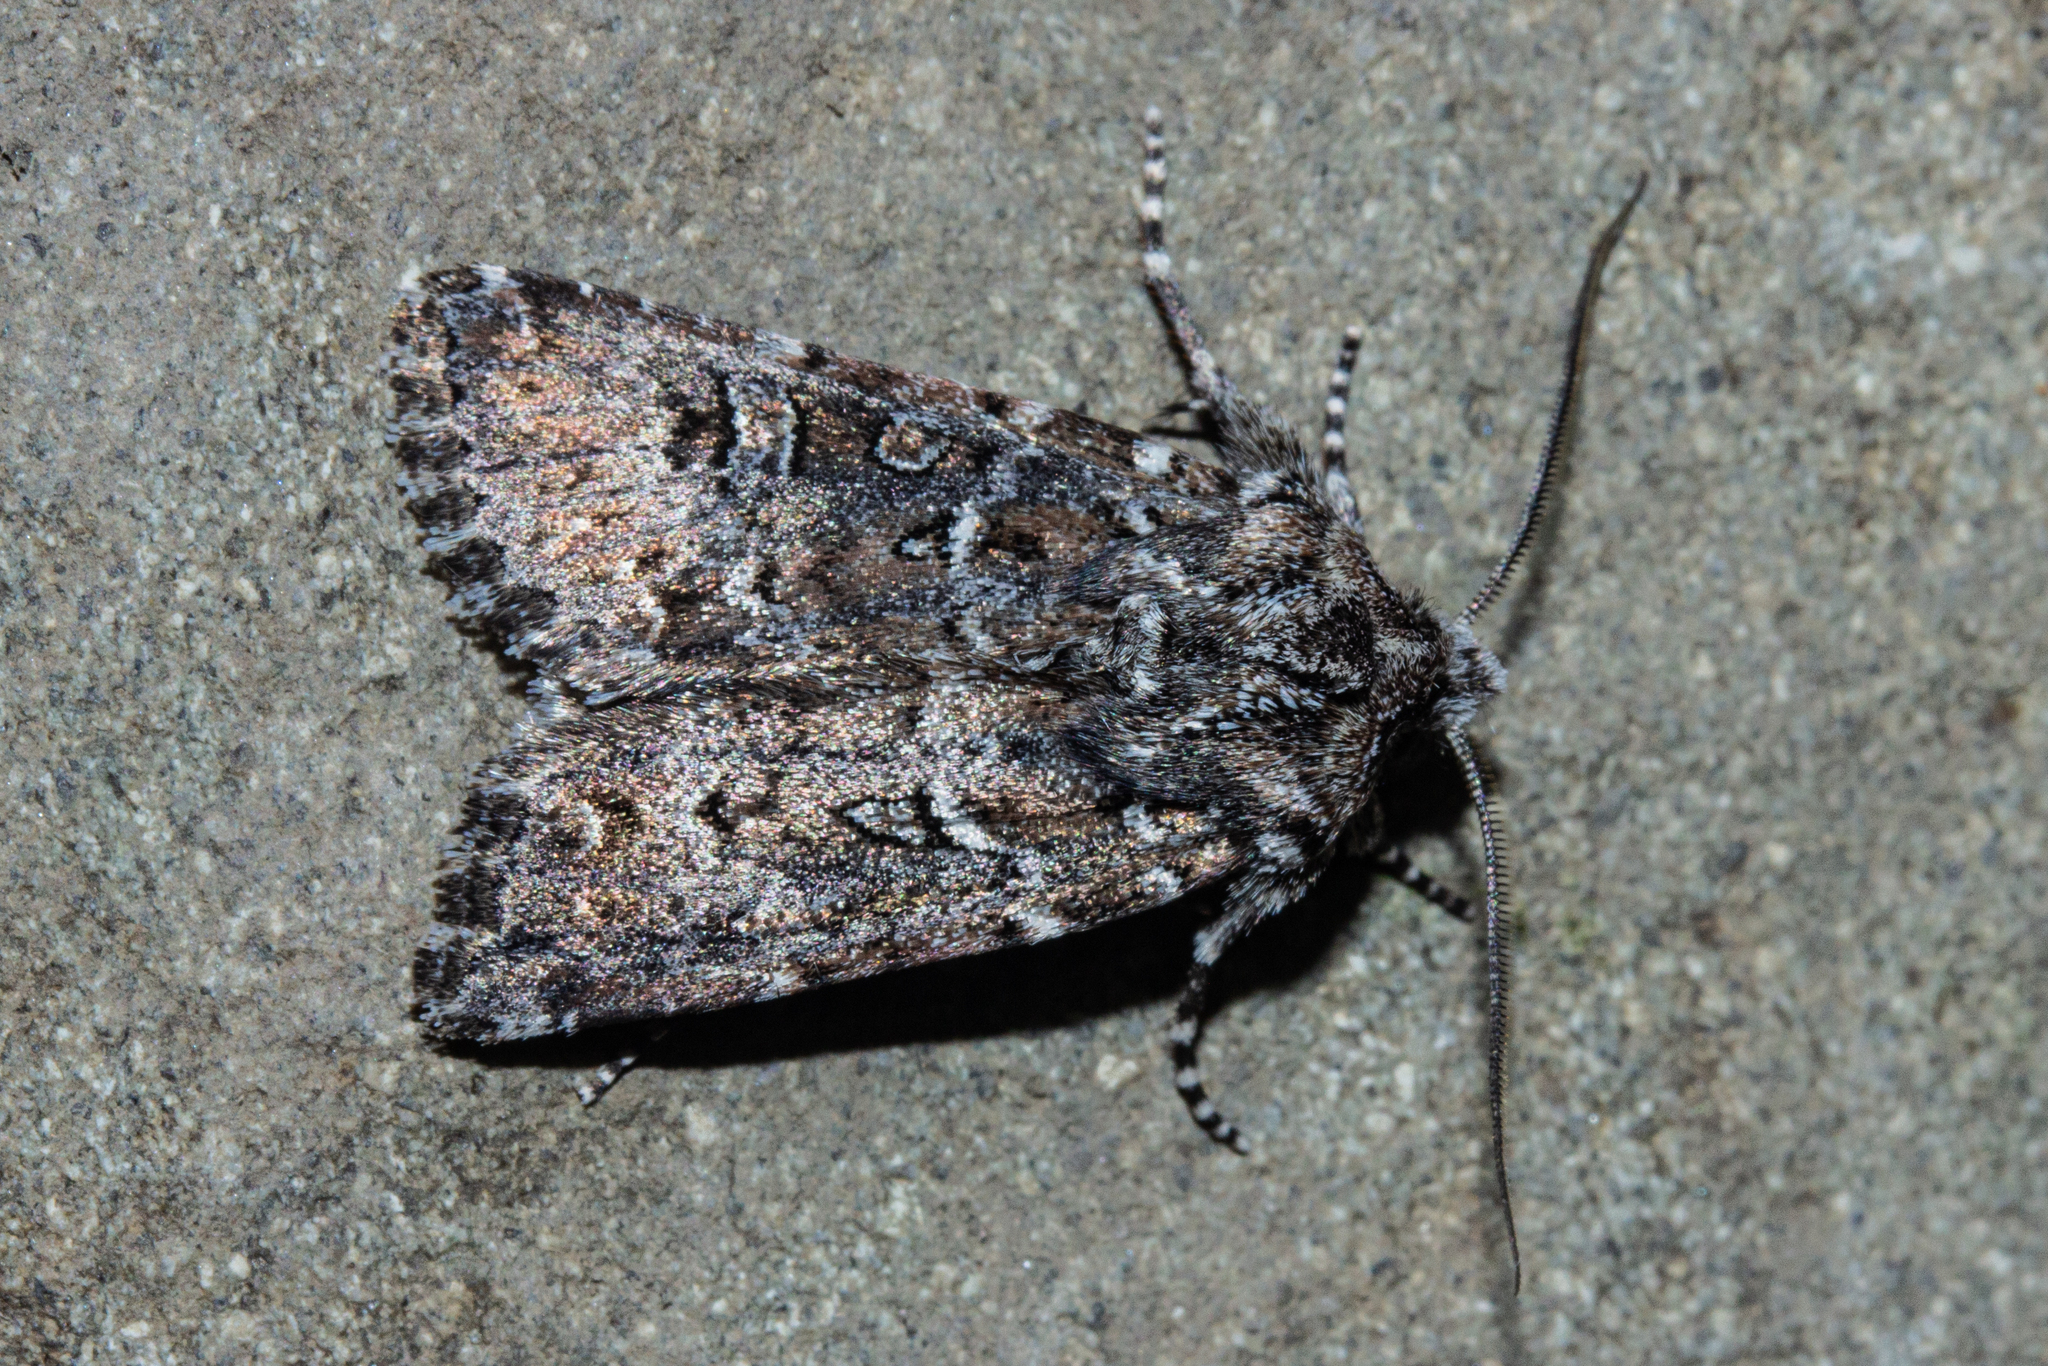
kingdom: Animalia
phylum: Arthropoda
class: Insecta
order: Lepidoptera
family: Noctuidae
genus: Ichneutica
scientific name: Ichneutica lithias
